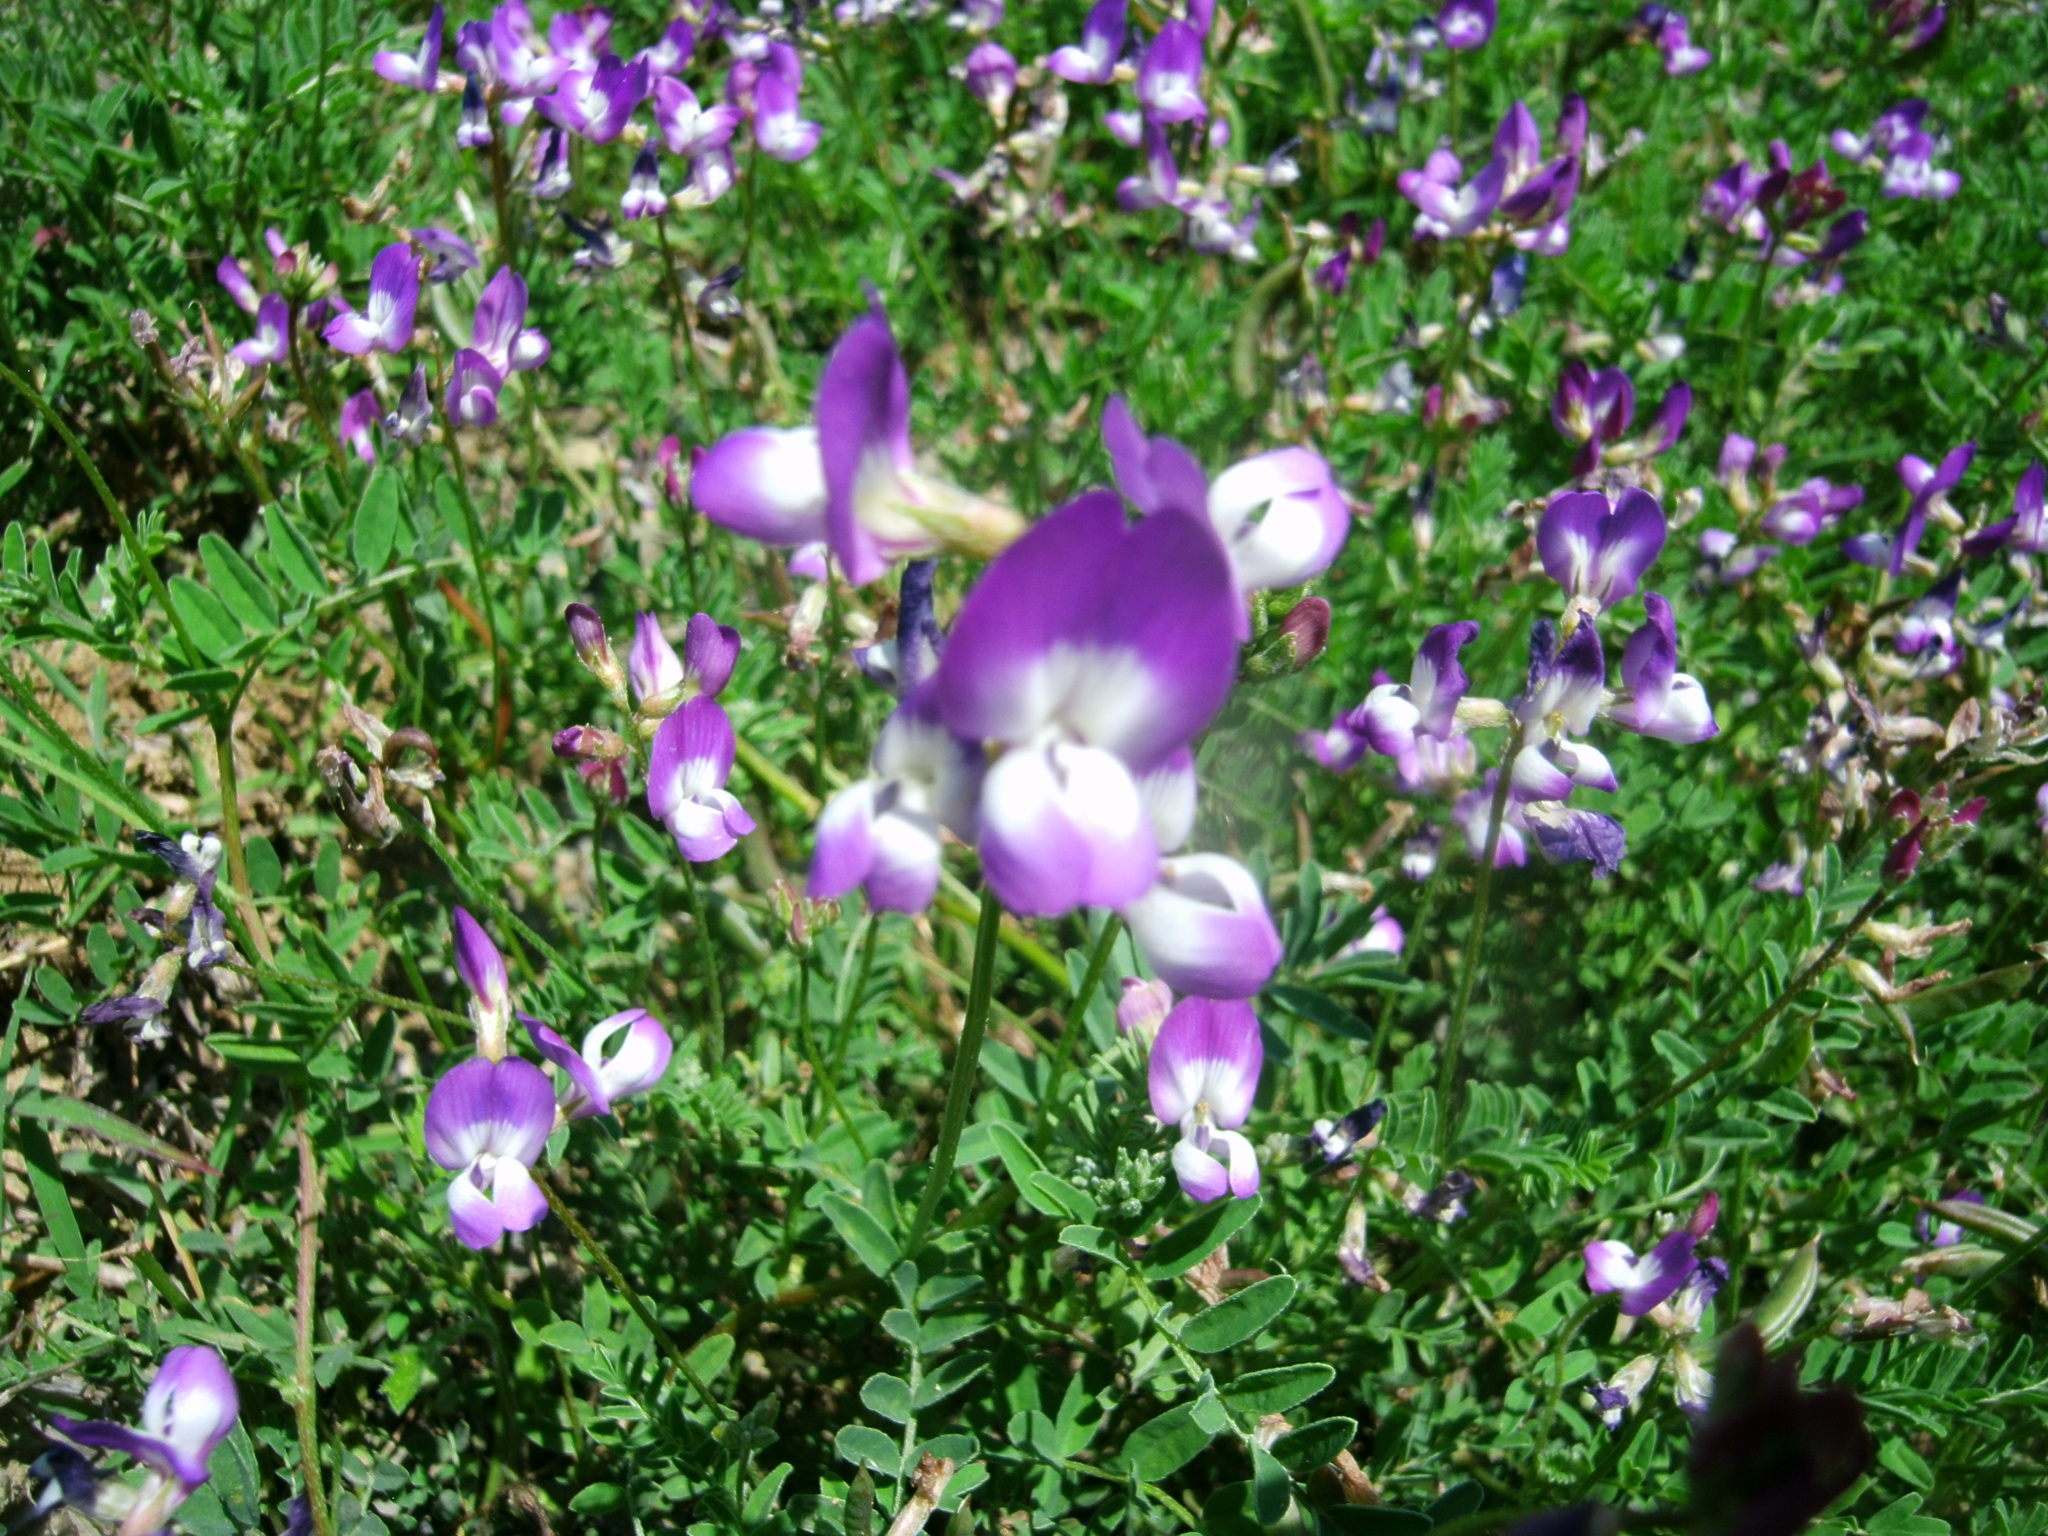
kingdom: Plantae
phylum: Tracheophyta
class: Magnoliopsida
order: Fabales
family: Fabaceae
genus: Astragalus
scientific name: Astragalus emoryanus
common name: Emory's milk-vetch
